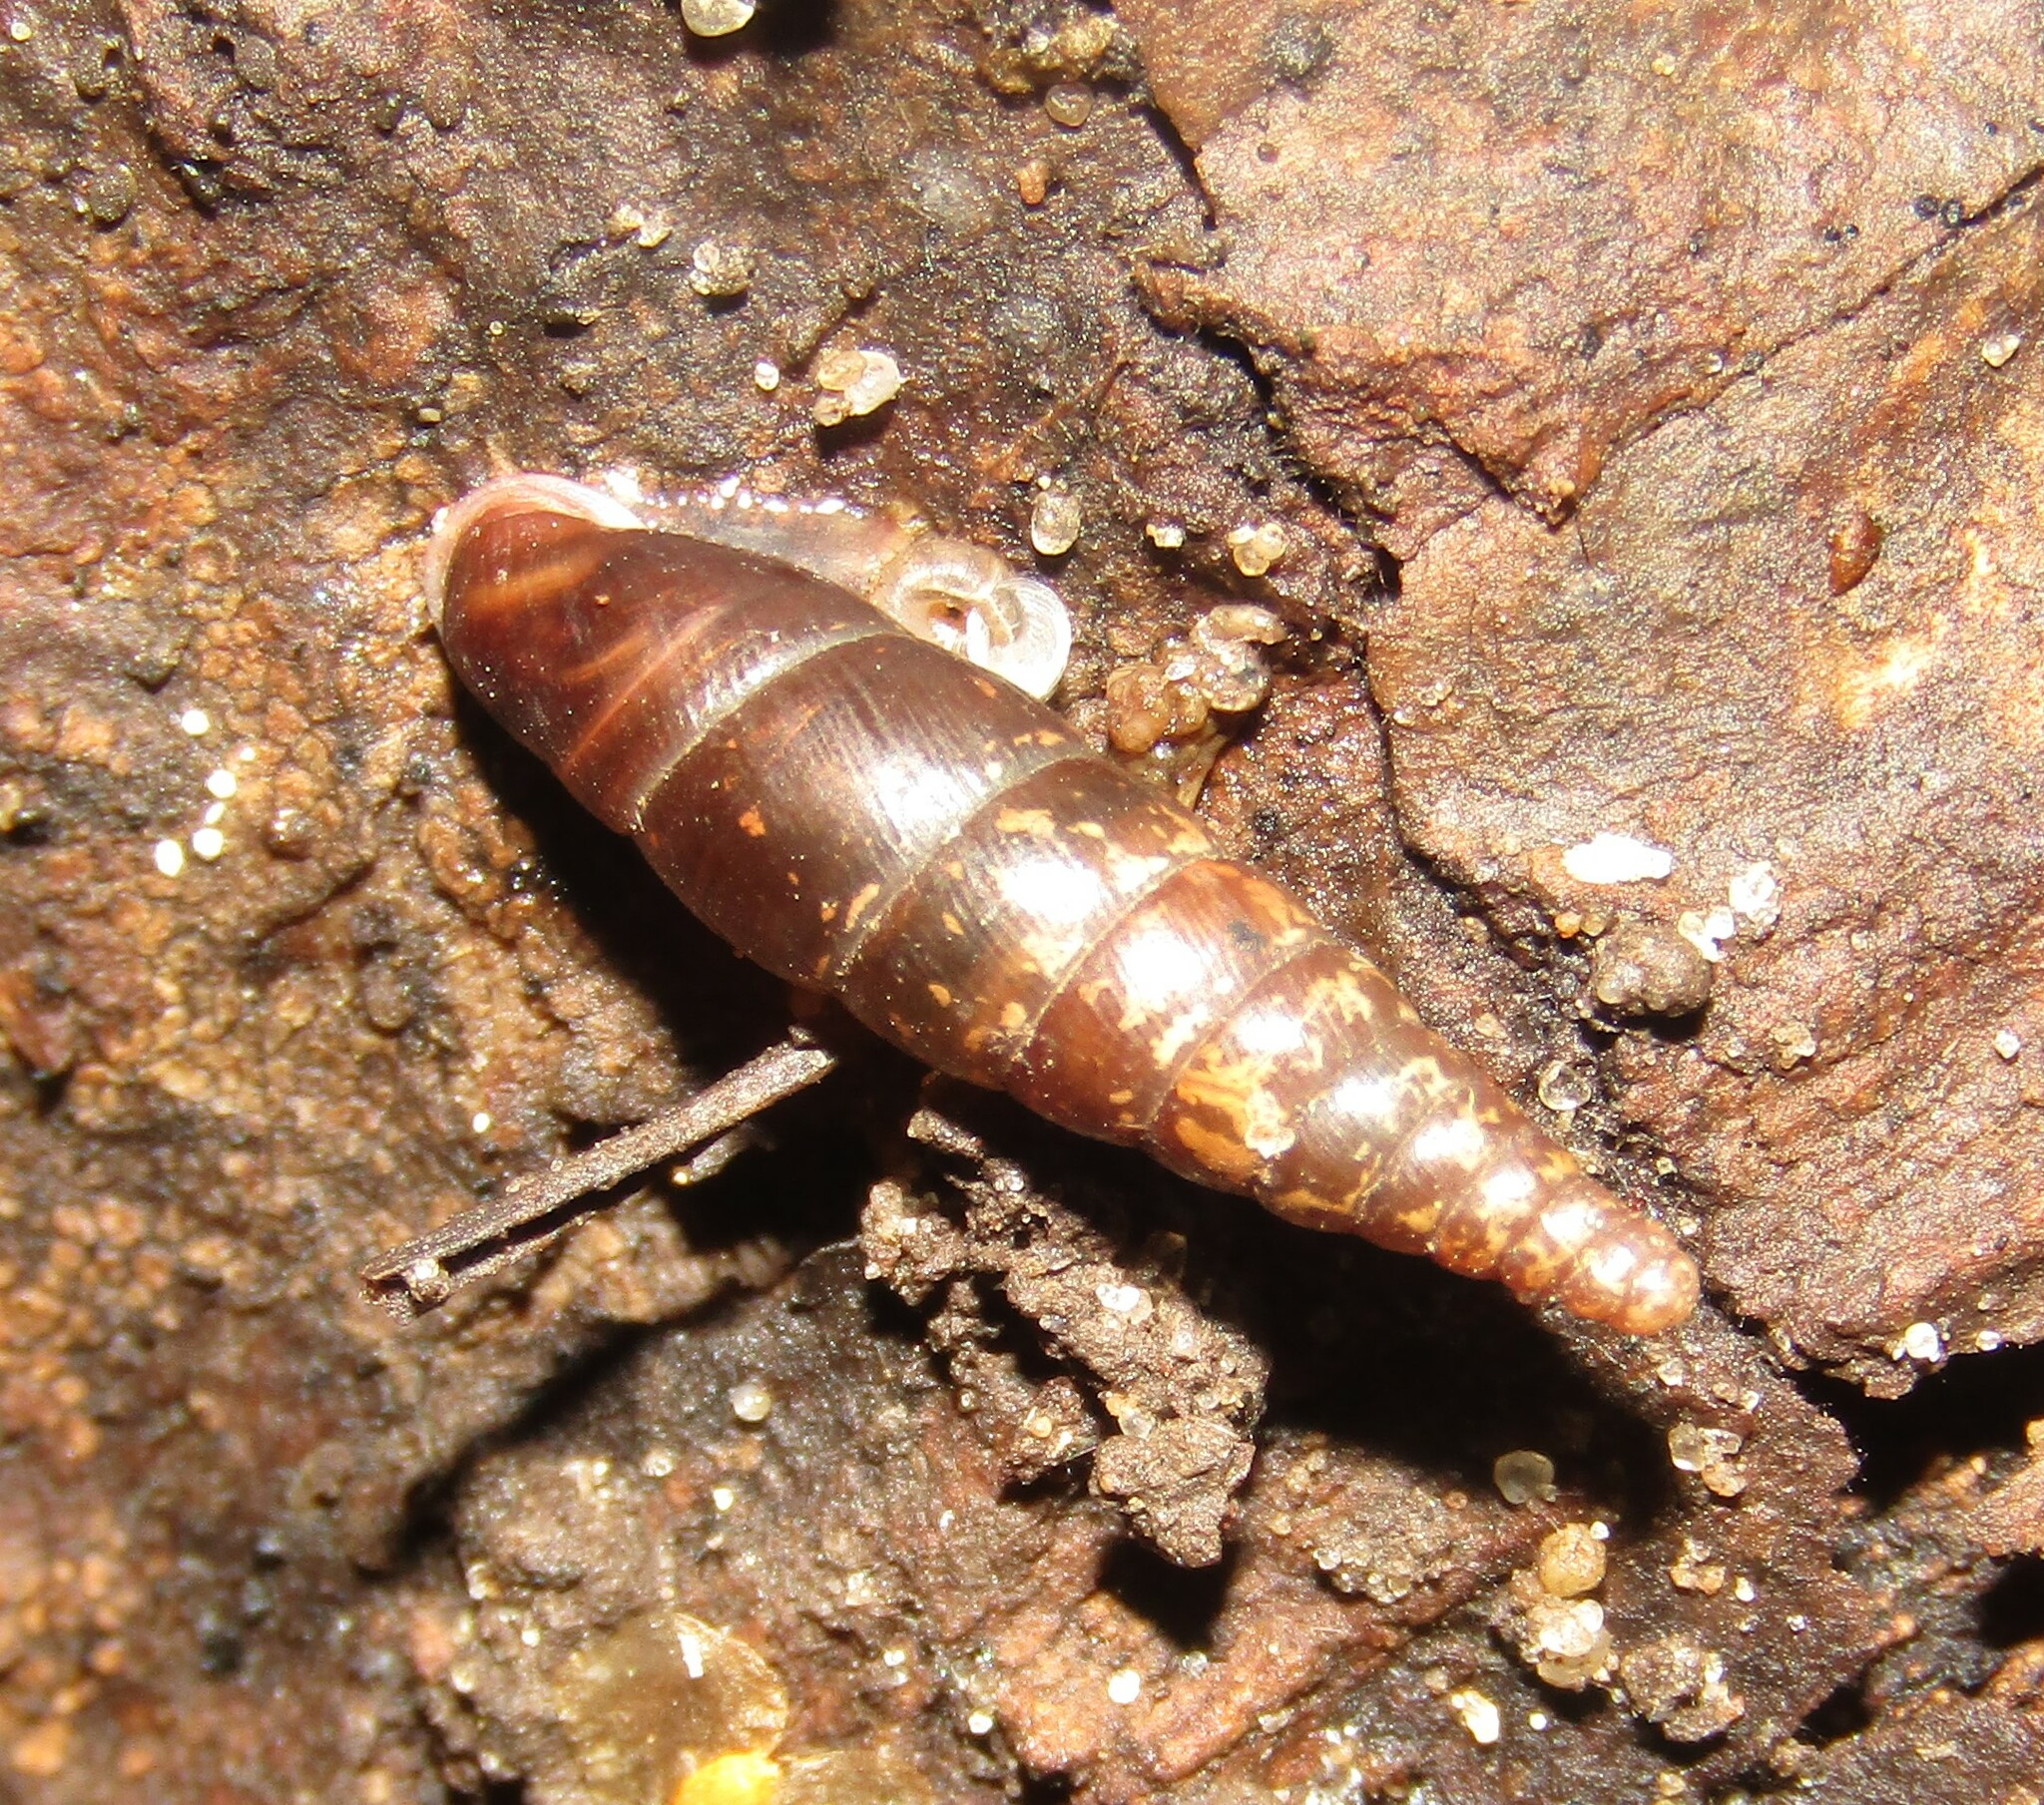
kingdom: Animalia
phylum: Mollusca
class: Gastropoda
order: Stylommatophora
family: Clausiliidae
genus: Cochlodina
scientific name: Cochlodina laminata
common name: Plaited door snail
